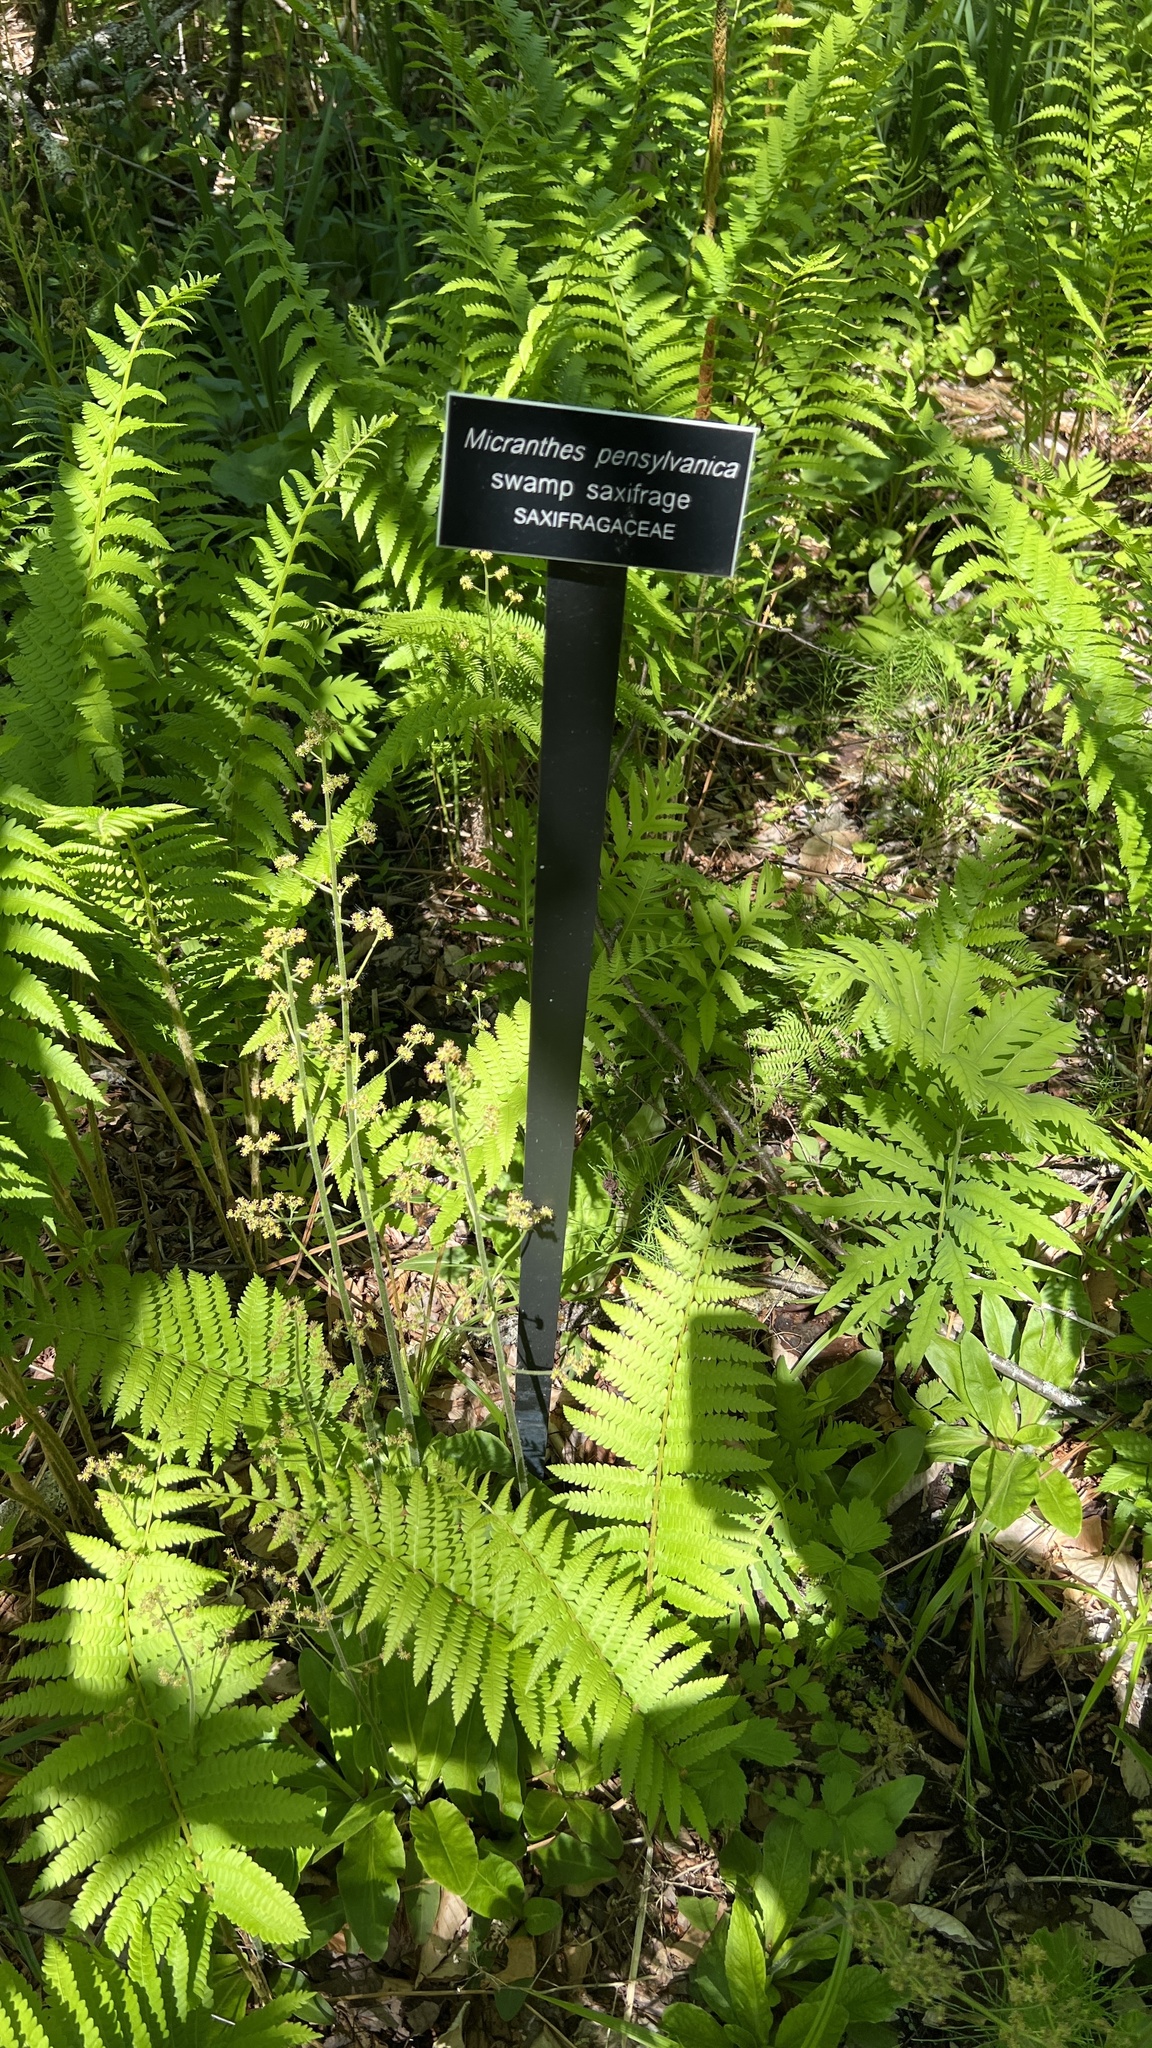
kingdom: Plantae
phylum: Tracheophyta
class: Magnoliopsida
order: Saxifragales
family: Saxifragaceae
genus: Micranthes
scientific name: Micranthes pensylvanica
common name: Marsh saxifrage
